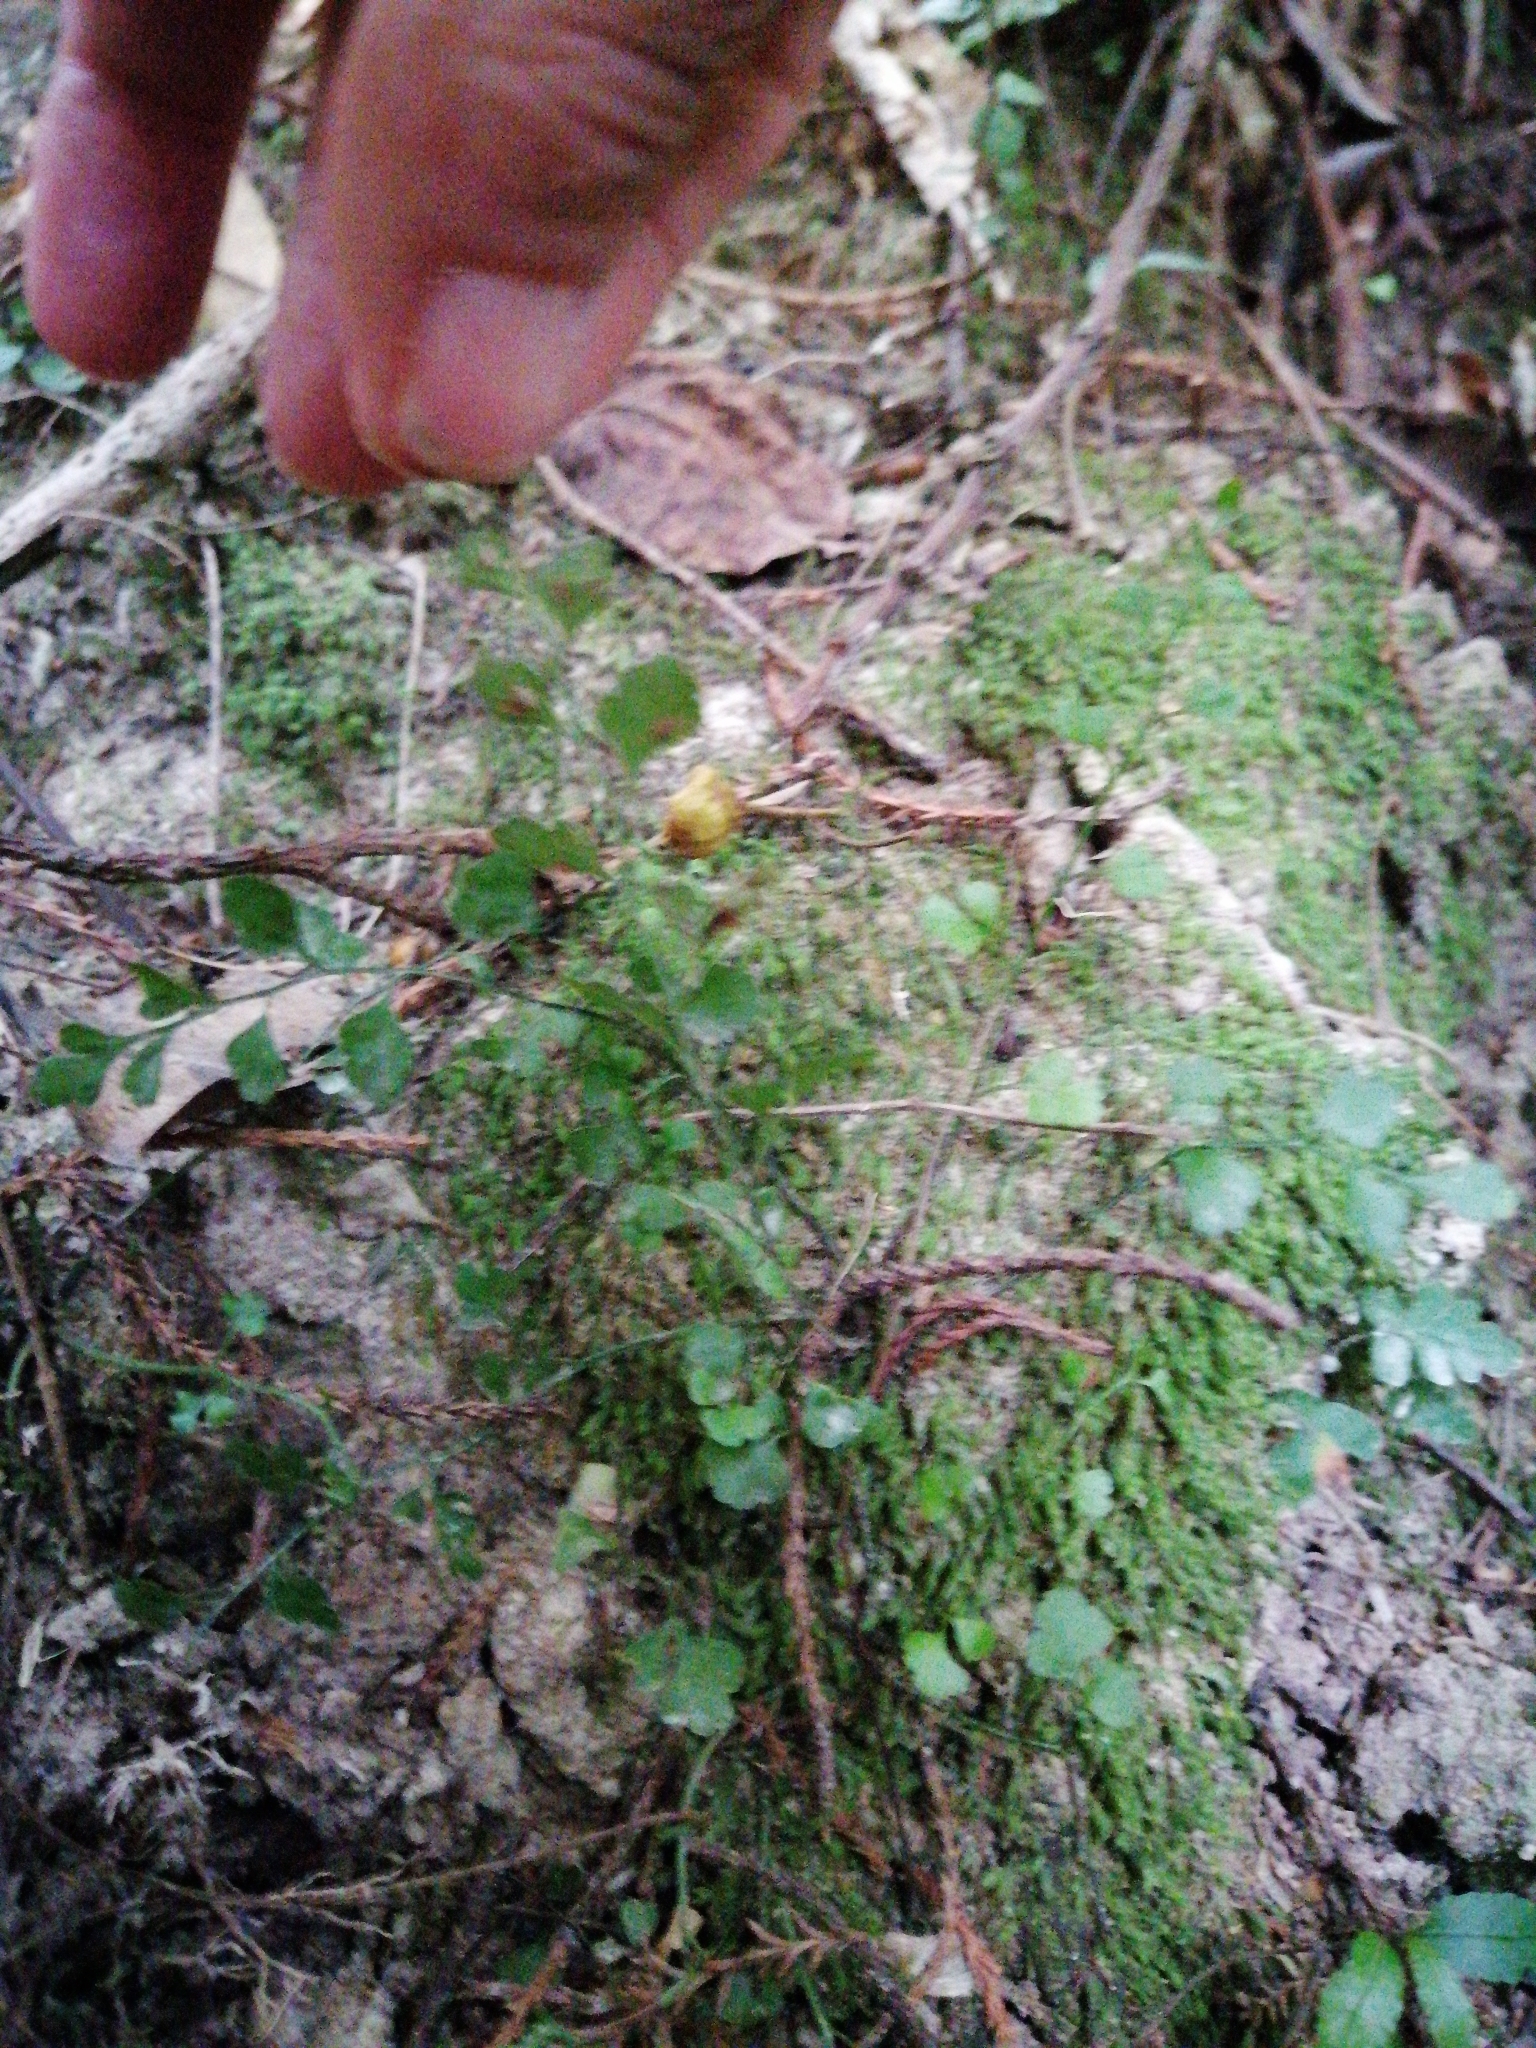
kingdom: Plantae
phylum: Tracheophyta
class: Polypodiopsida
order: Polypodiales
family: Aspleniaceae
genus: Asplenium
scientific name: Asplenium hookerianum
